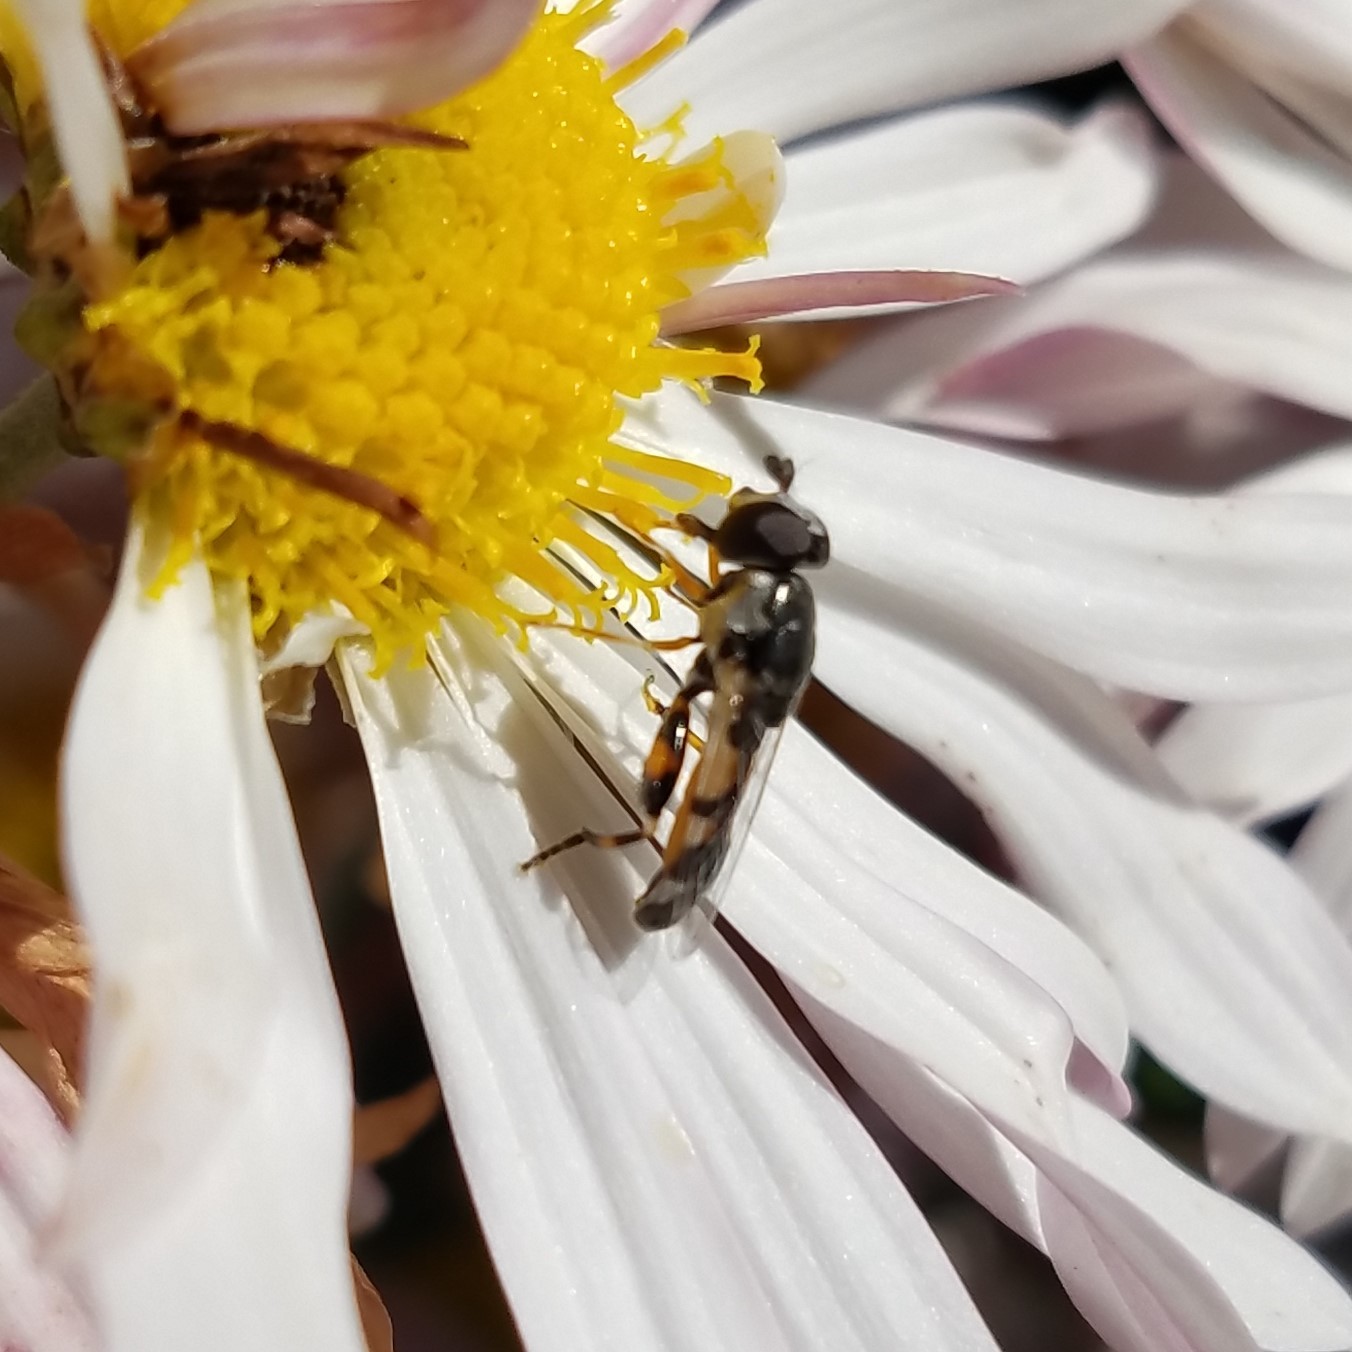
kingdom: Animalia
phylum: Arthropoda
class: Insecta
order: Diptera
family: Syrphidae
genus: Syritta
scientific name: Syritta flaviventris
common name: Syrphid fly
